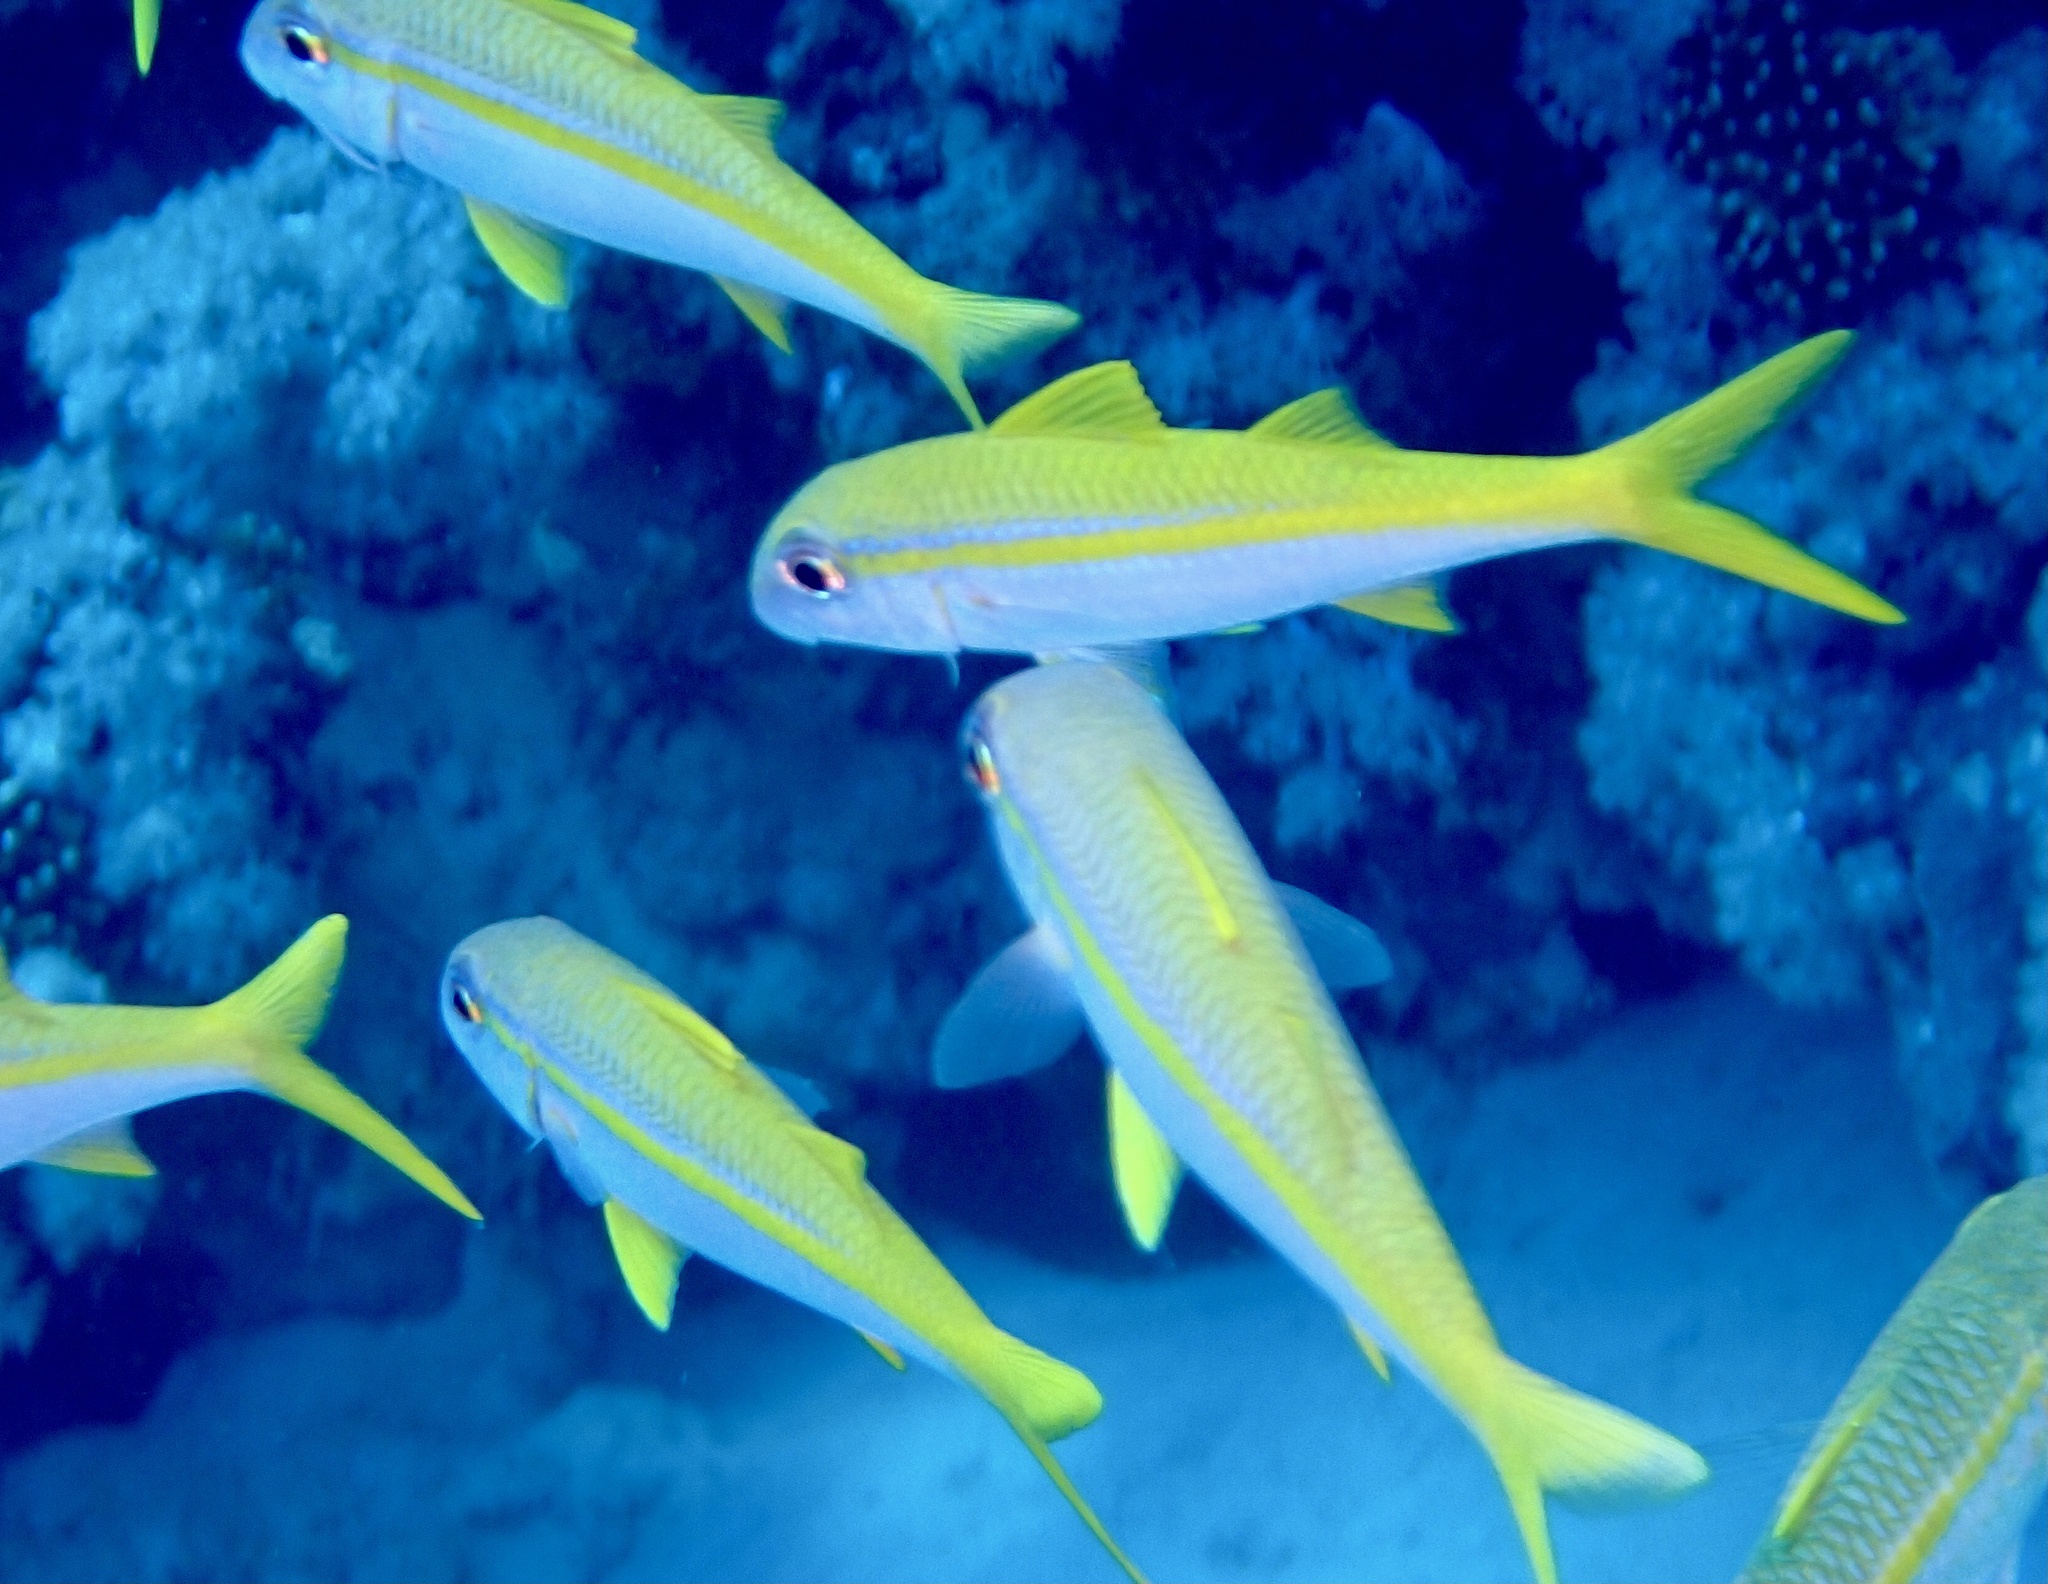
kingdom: Animalia
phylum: Chordata
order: Perciformes
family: Mullidae
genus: Mulloidichthys
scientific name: Mulloidichthys vanicolensis
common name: Yellowfin goatfish
